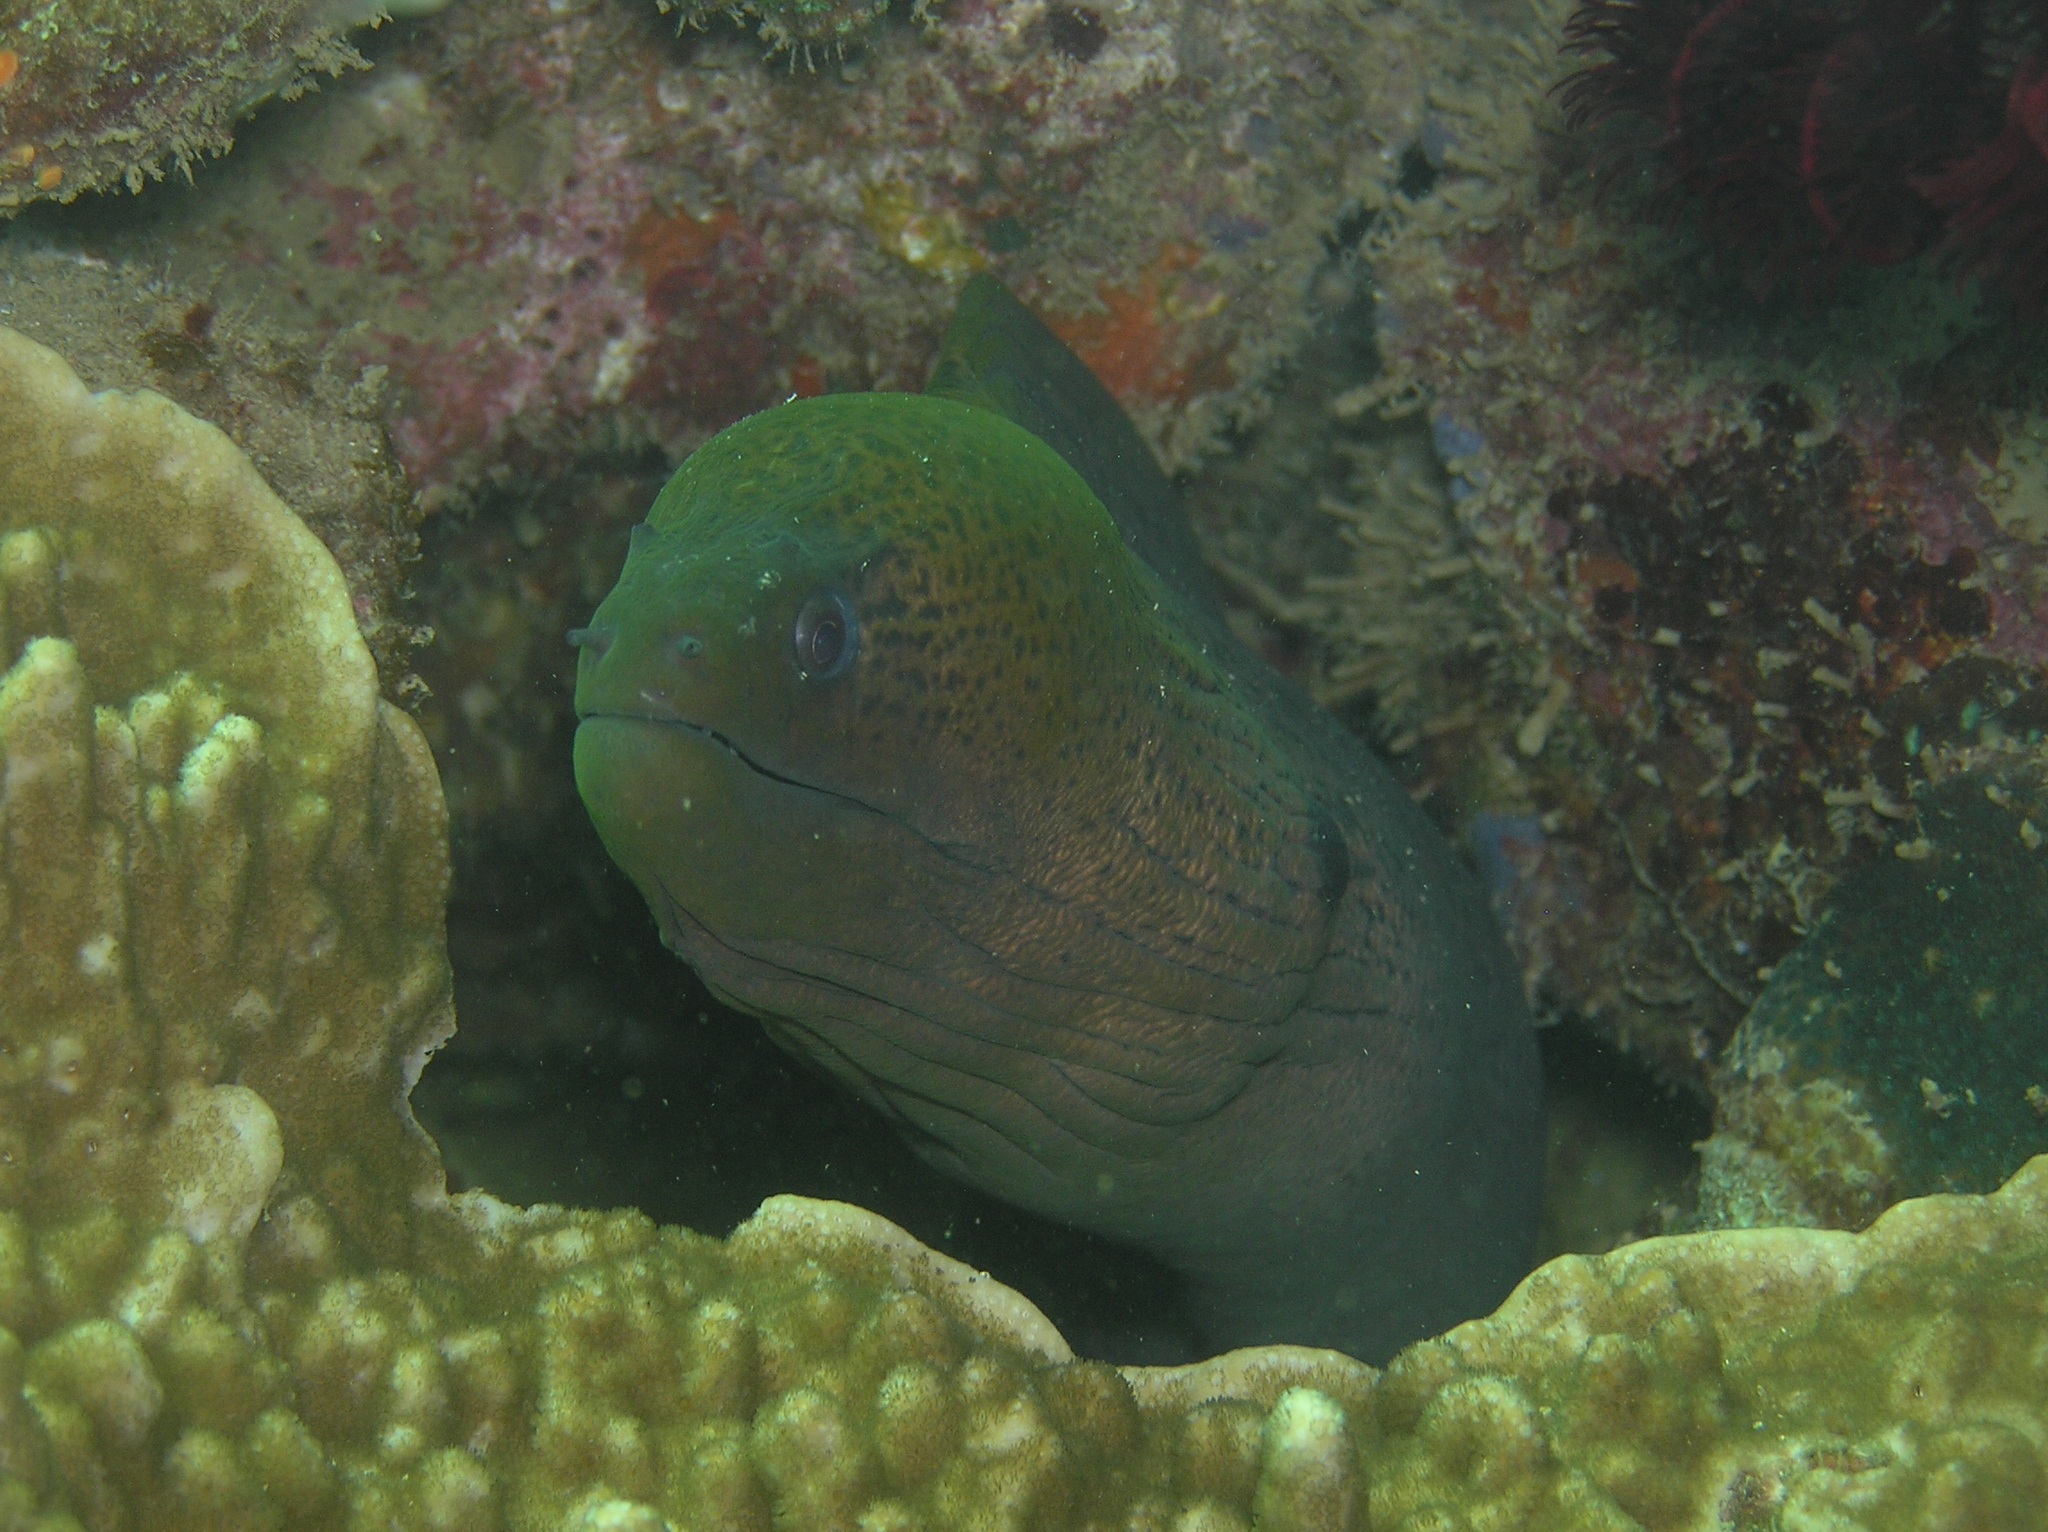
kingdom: Animalia
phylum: Chordata
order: Anguilliformes
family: Muraenidae
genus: Gymnothorax
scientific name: Gymnothorax javanicus
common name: Giant moray
